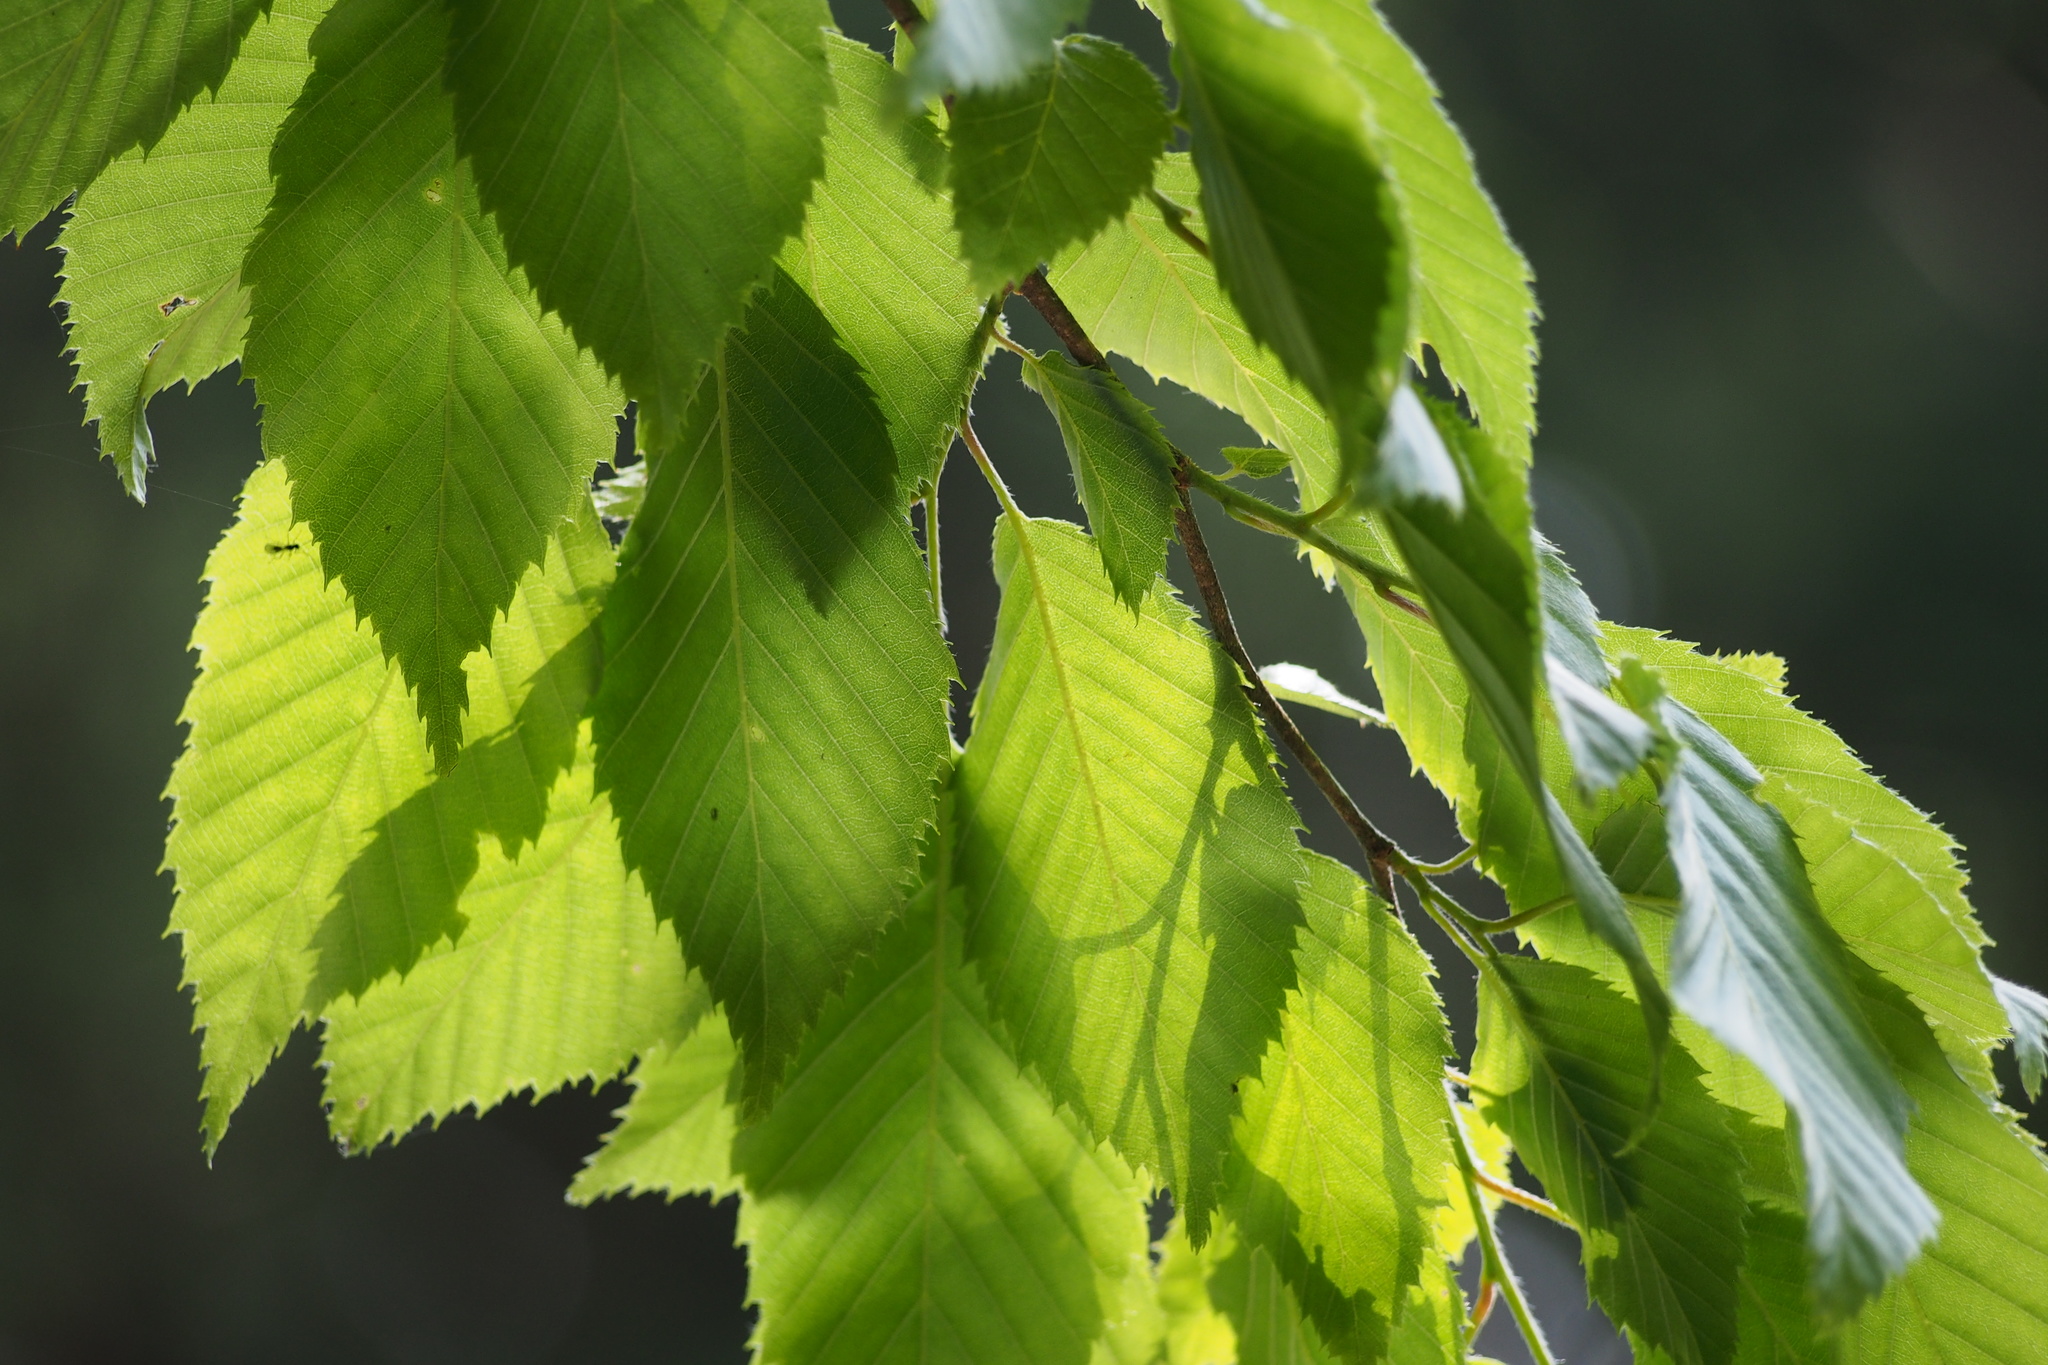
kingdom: Plantae
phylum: Tracheophyta
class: Magnoliopsida
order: Fagales
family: Betulaceae
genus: Carpinus
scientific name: Carpinus tschonoskii
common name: Asian hornbeam
